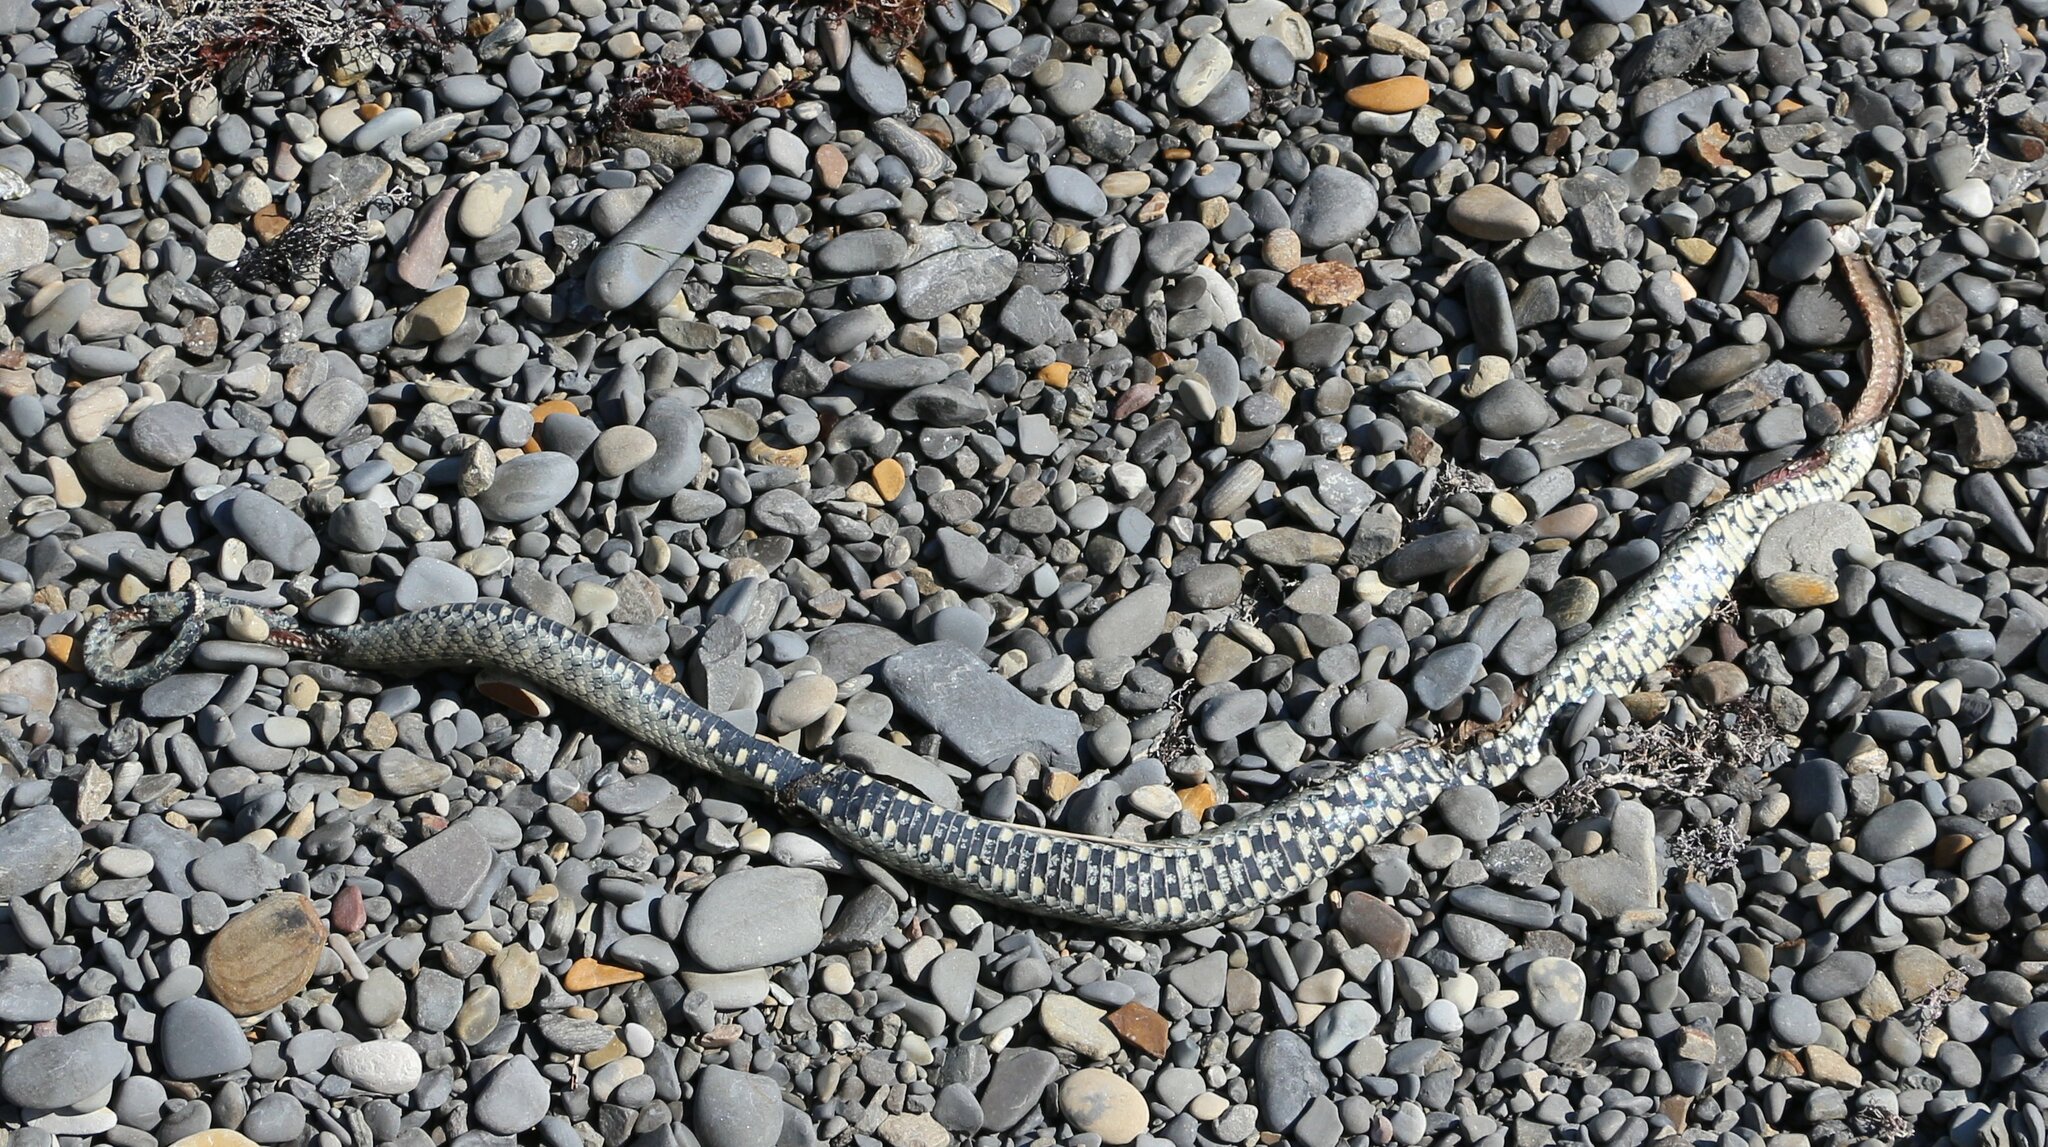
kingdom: Animalia
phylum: Chordata
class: Squamata
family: Colubridae
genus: Natrix
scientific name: Natrix tessellata
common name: Dice snake
